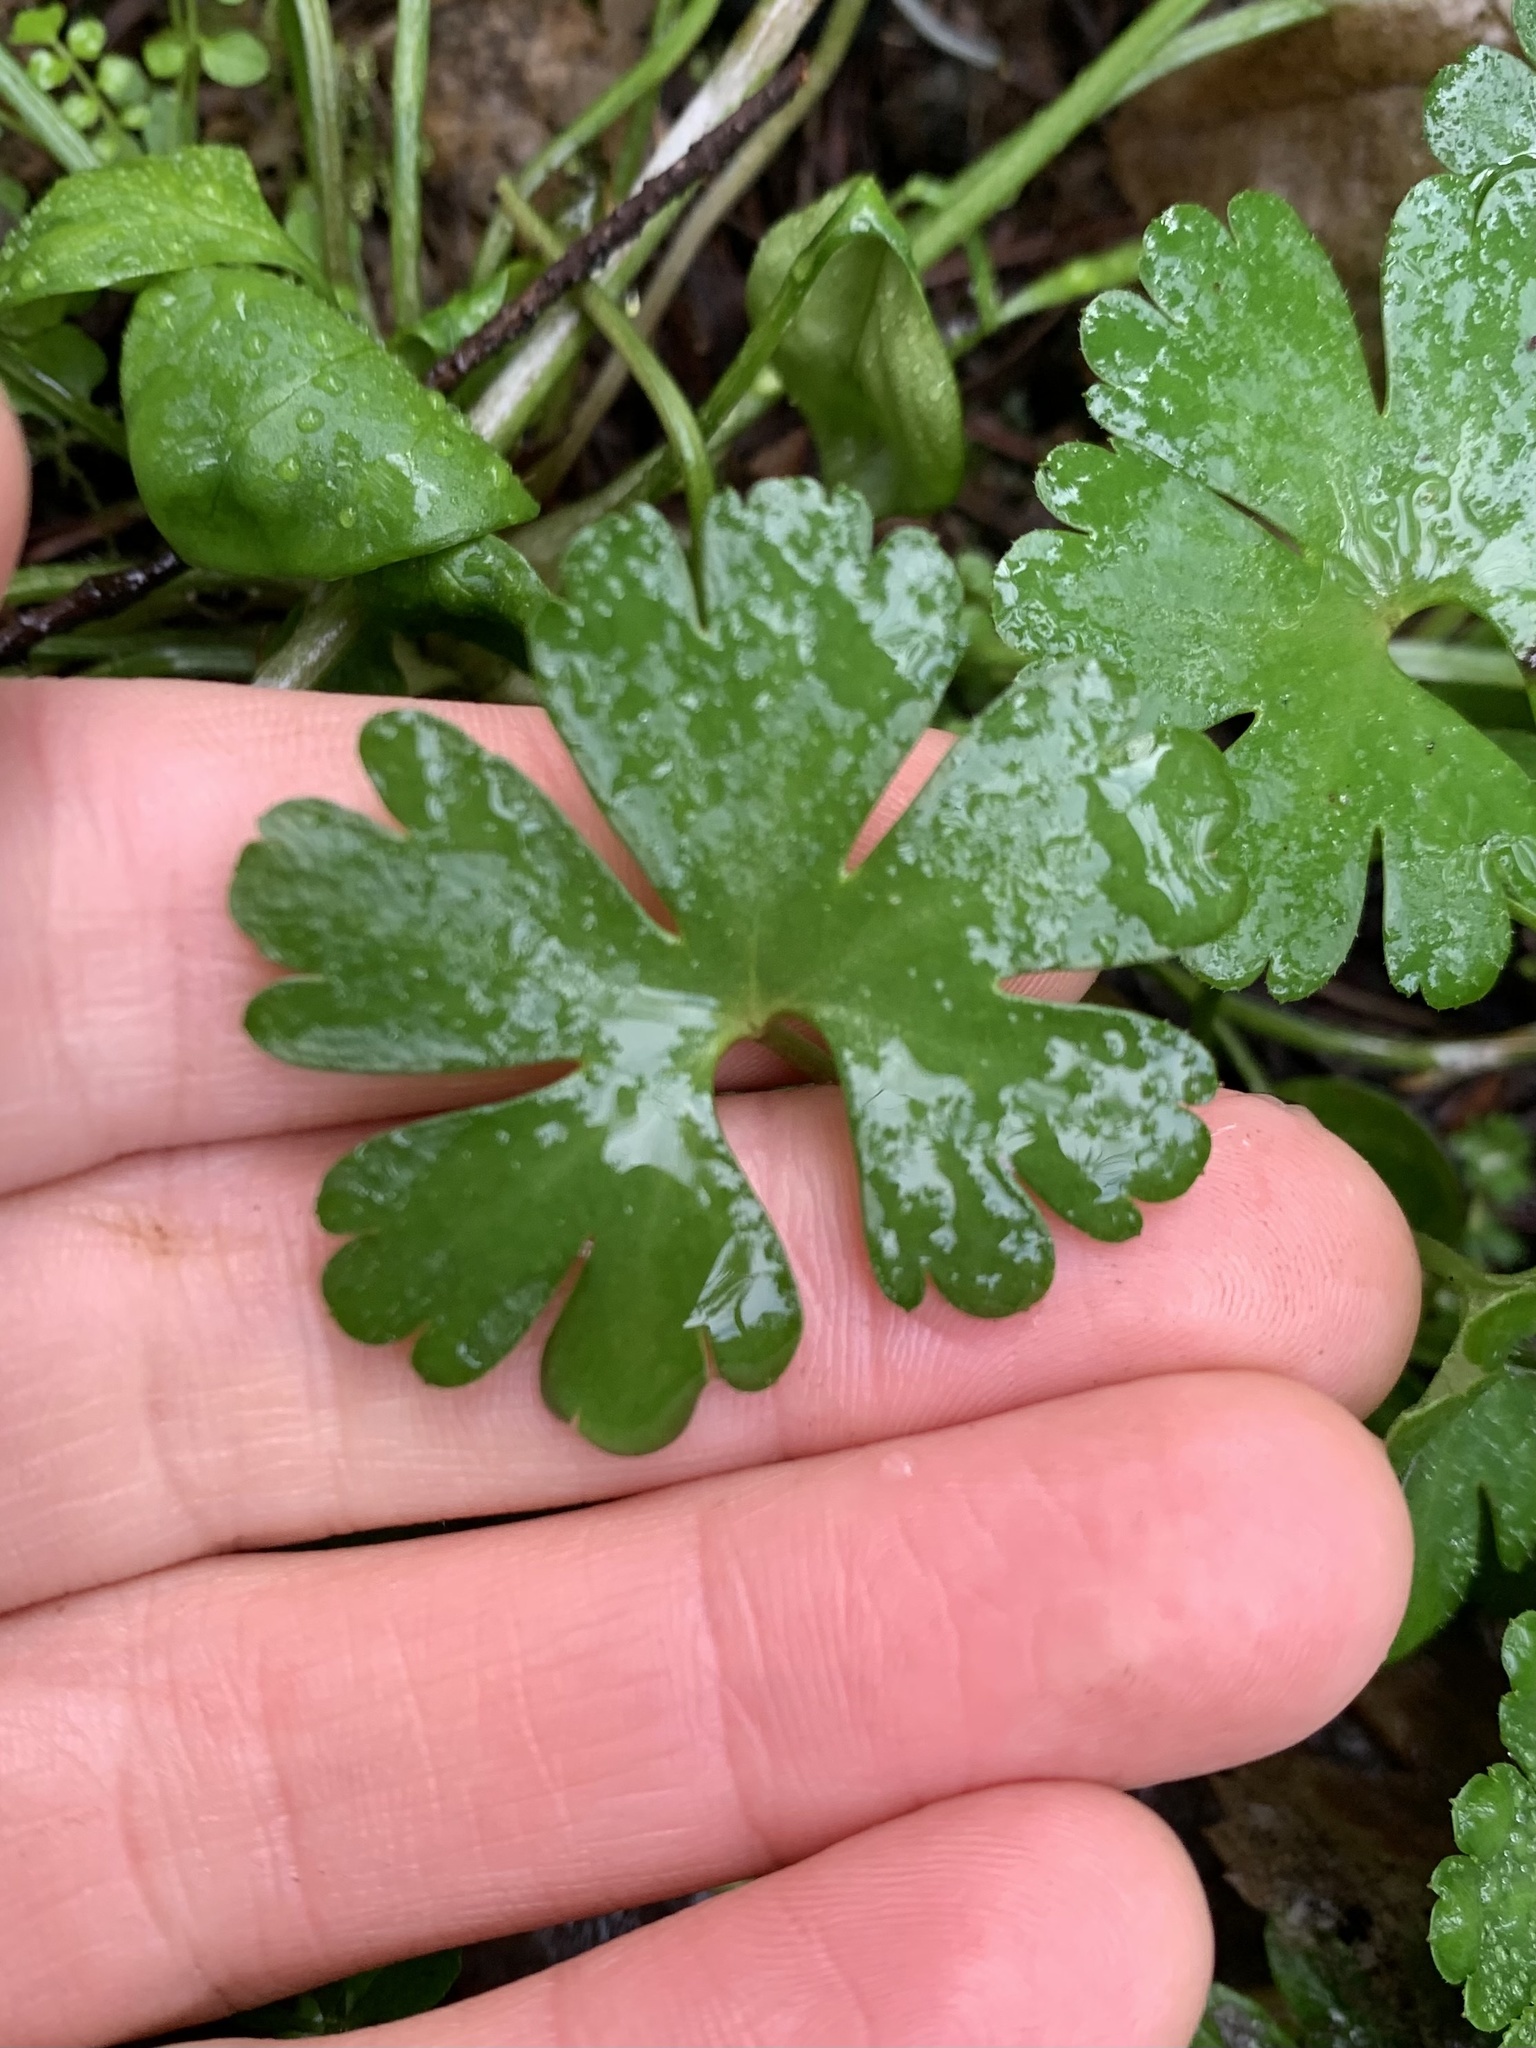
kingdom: Plantae
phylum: Tracheophyta
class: Magnoliopsida
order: Geraniales
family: Geraniaceae
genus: Geranium
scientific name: Geranium lucidum
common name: Shining crane's-bill
